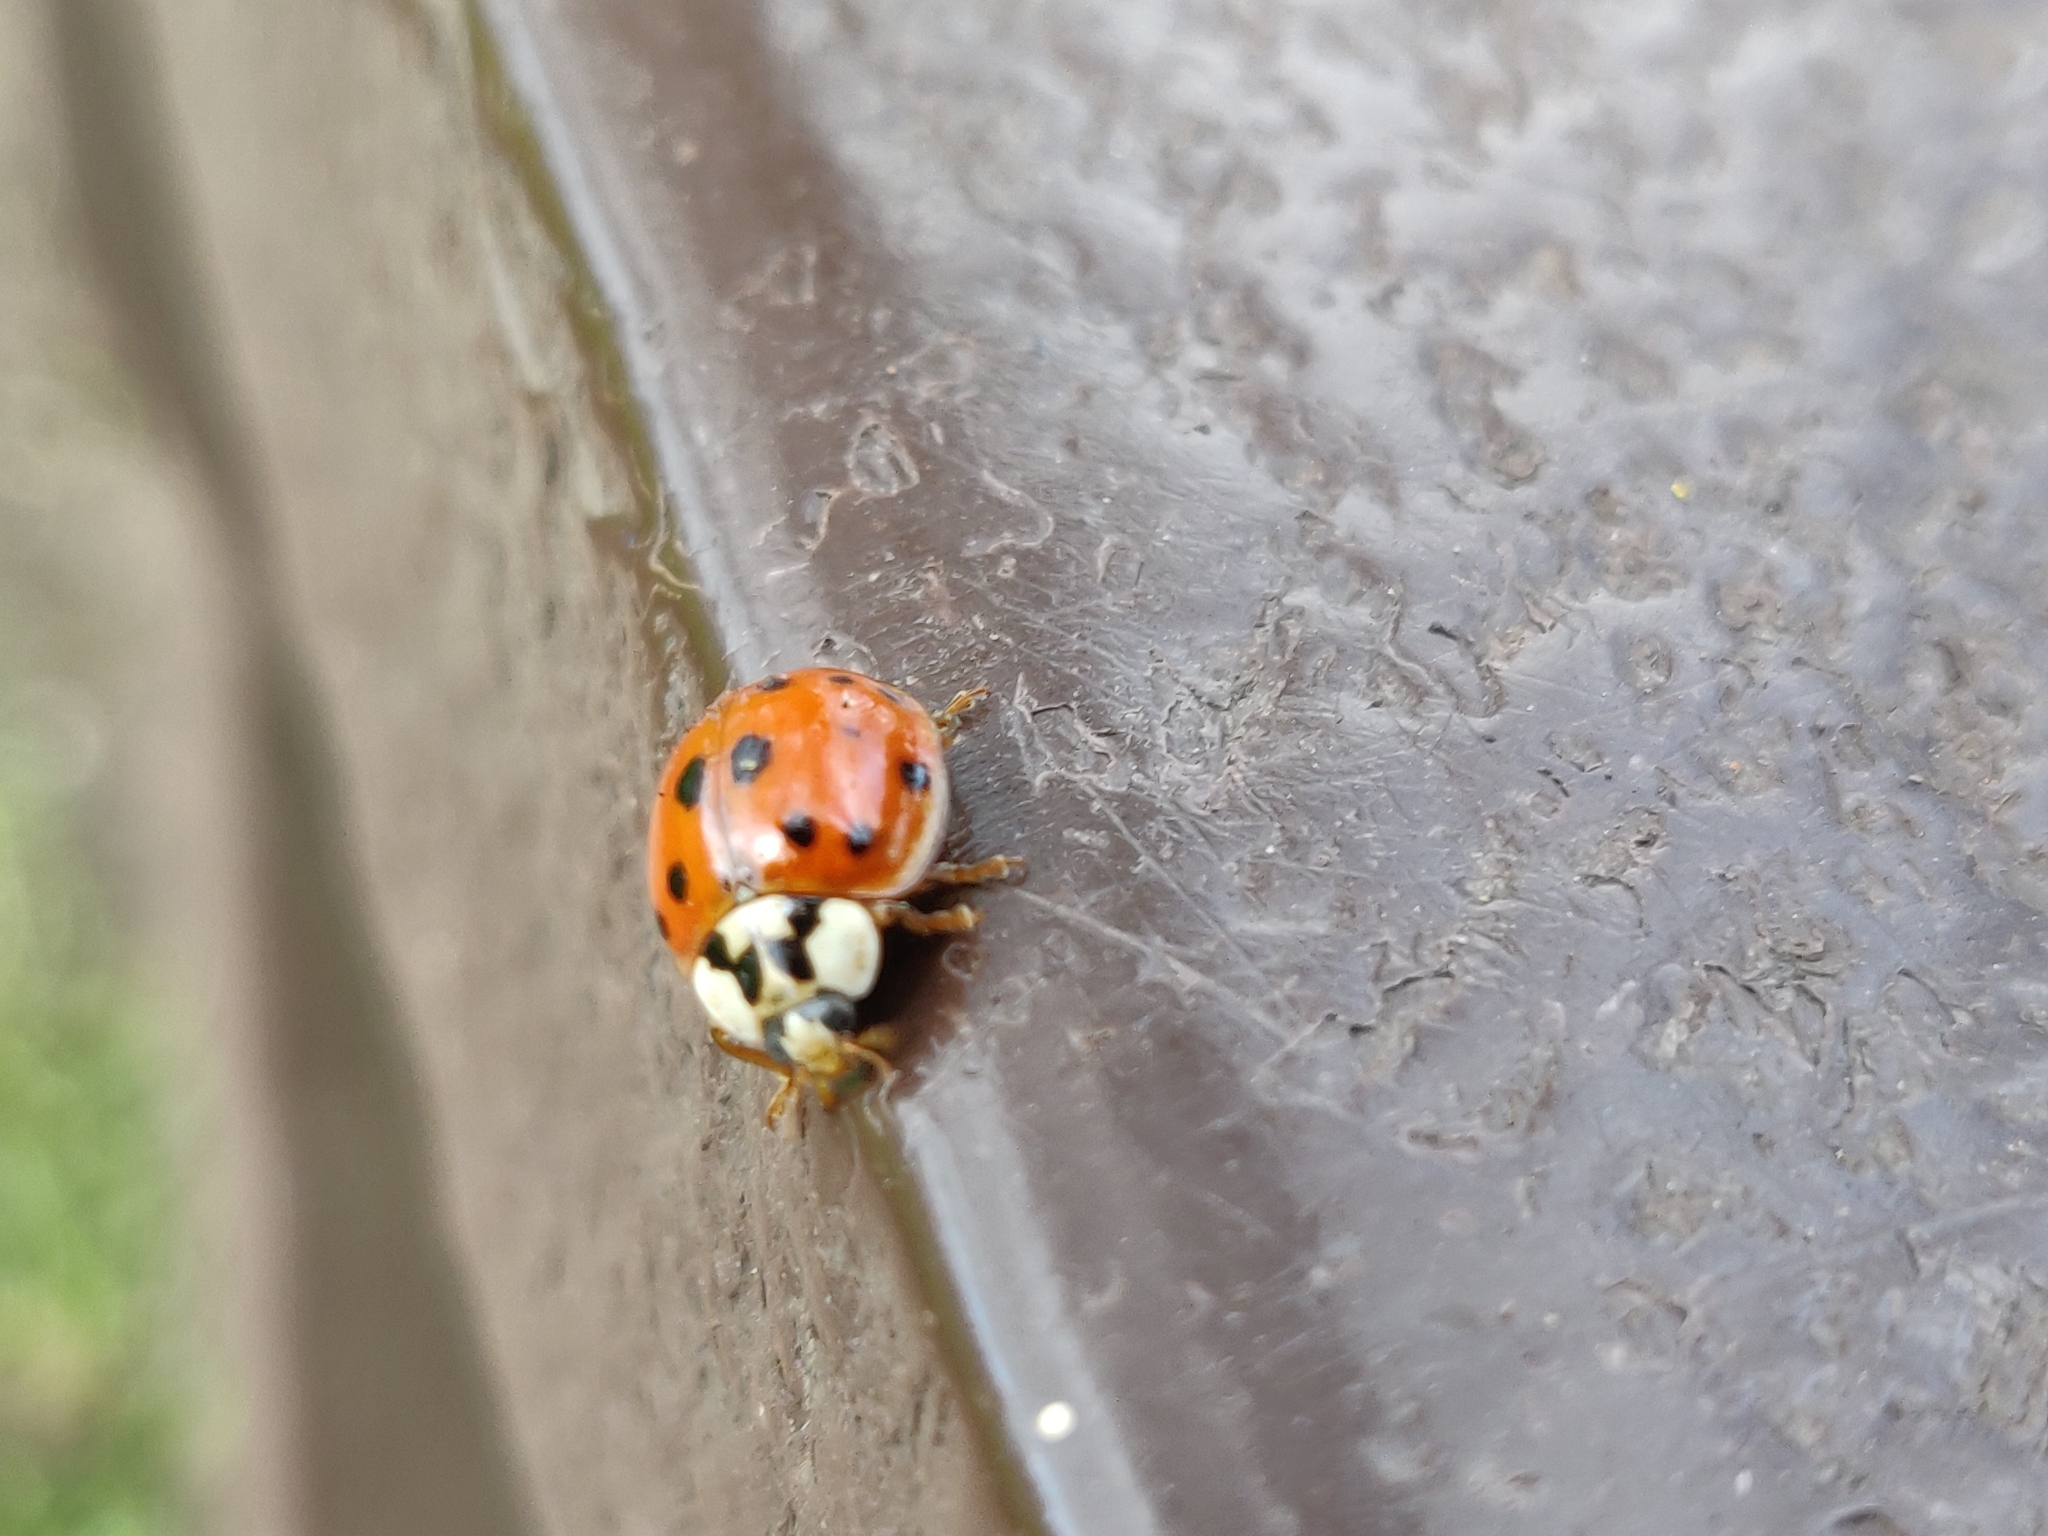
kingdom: Animalia
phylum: Arthropoda
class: Insecta
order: Coleoptera
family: Coccinellidae
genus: Harmonia
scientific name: Harmonia axyridis
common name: Harlequin ladybird
